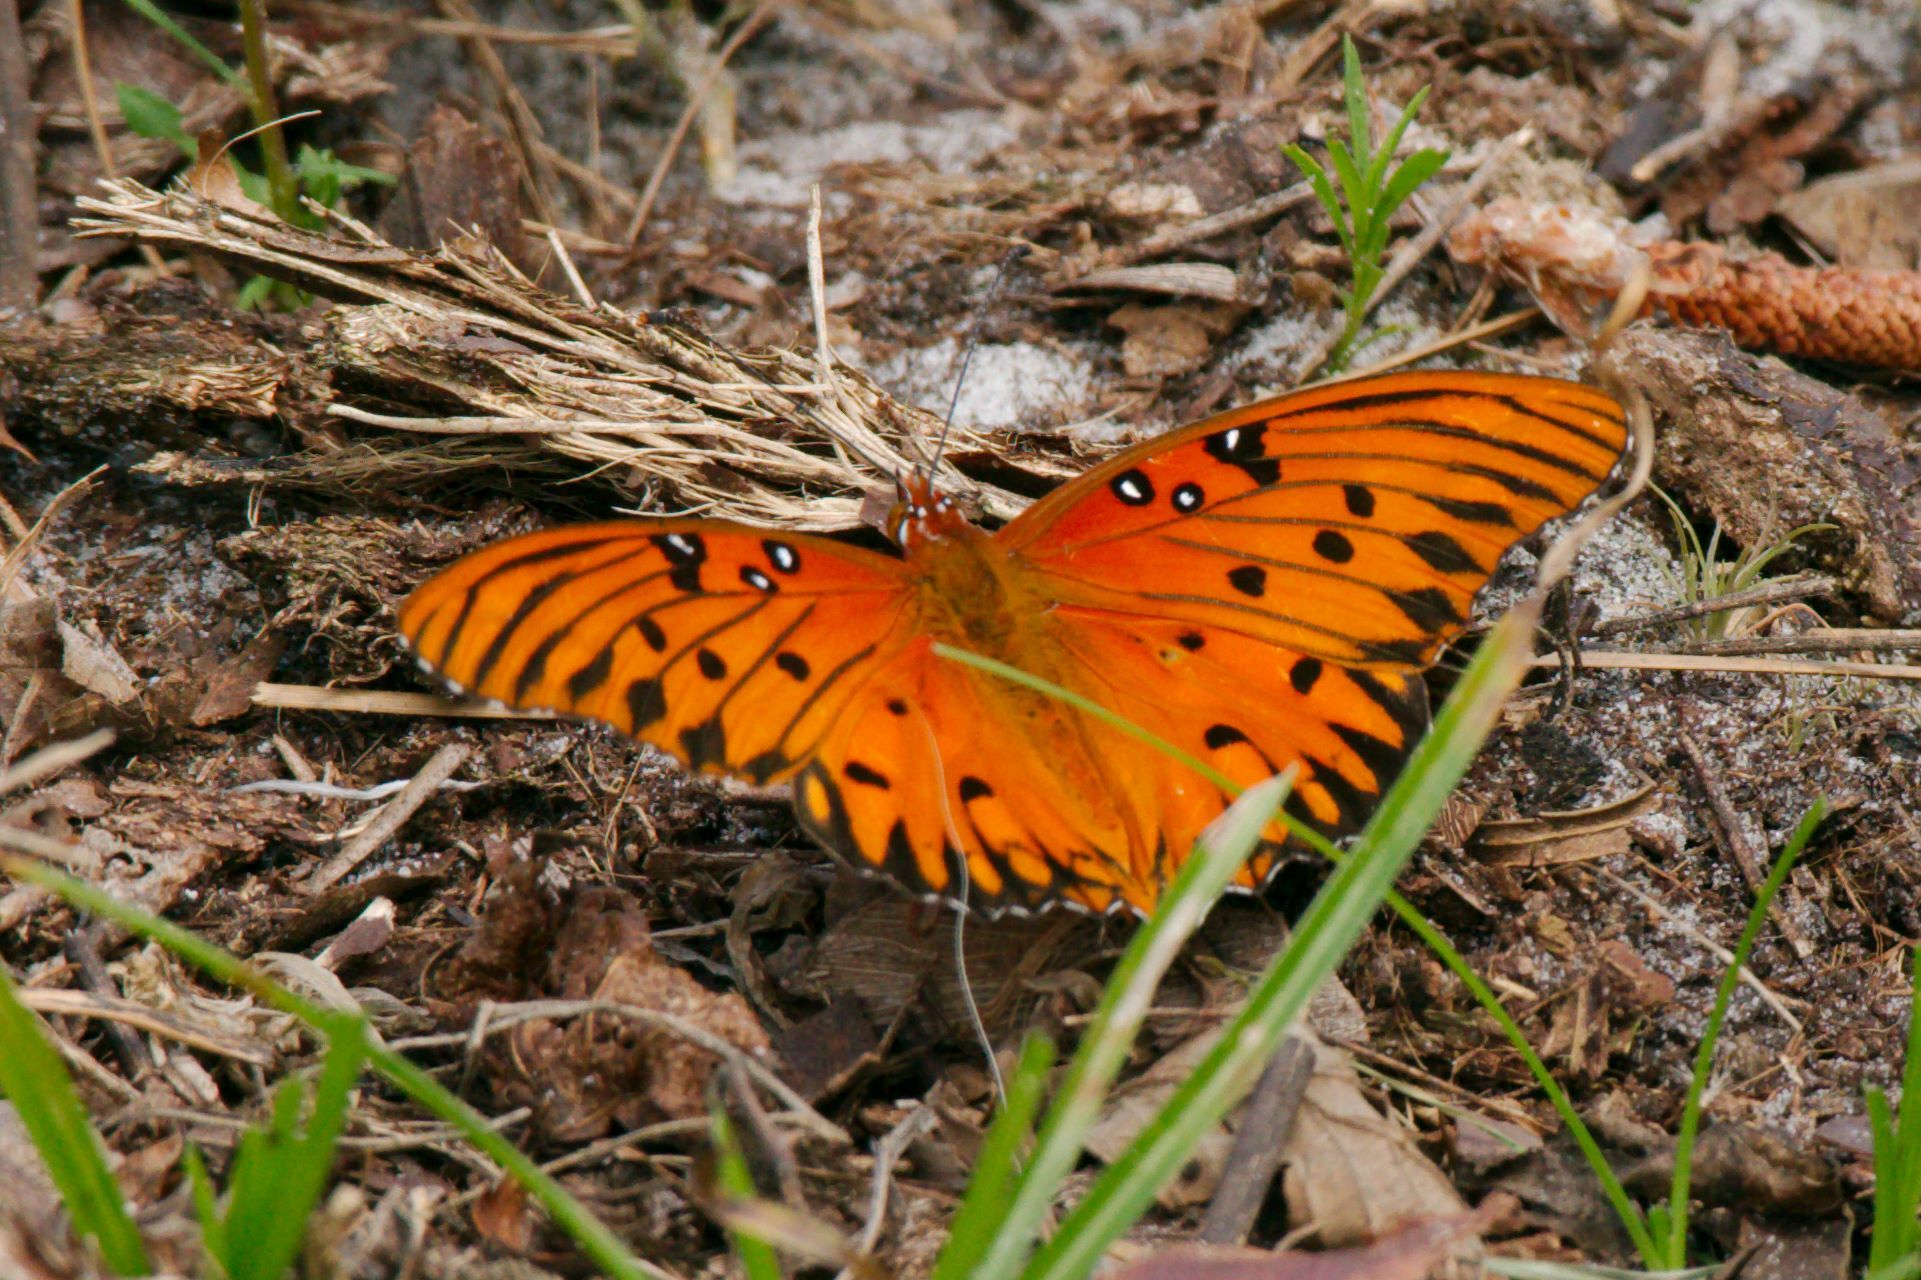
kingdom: Animalia
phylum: Arthropoda
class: Insecta
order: Lepidoptera
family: Nymphalidae
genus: Dione
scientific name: Dione vanillae
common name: Gulf fritillary
